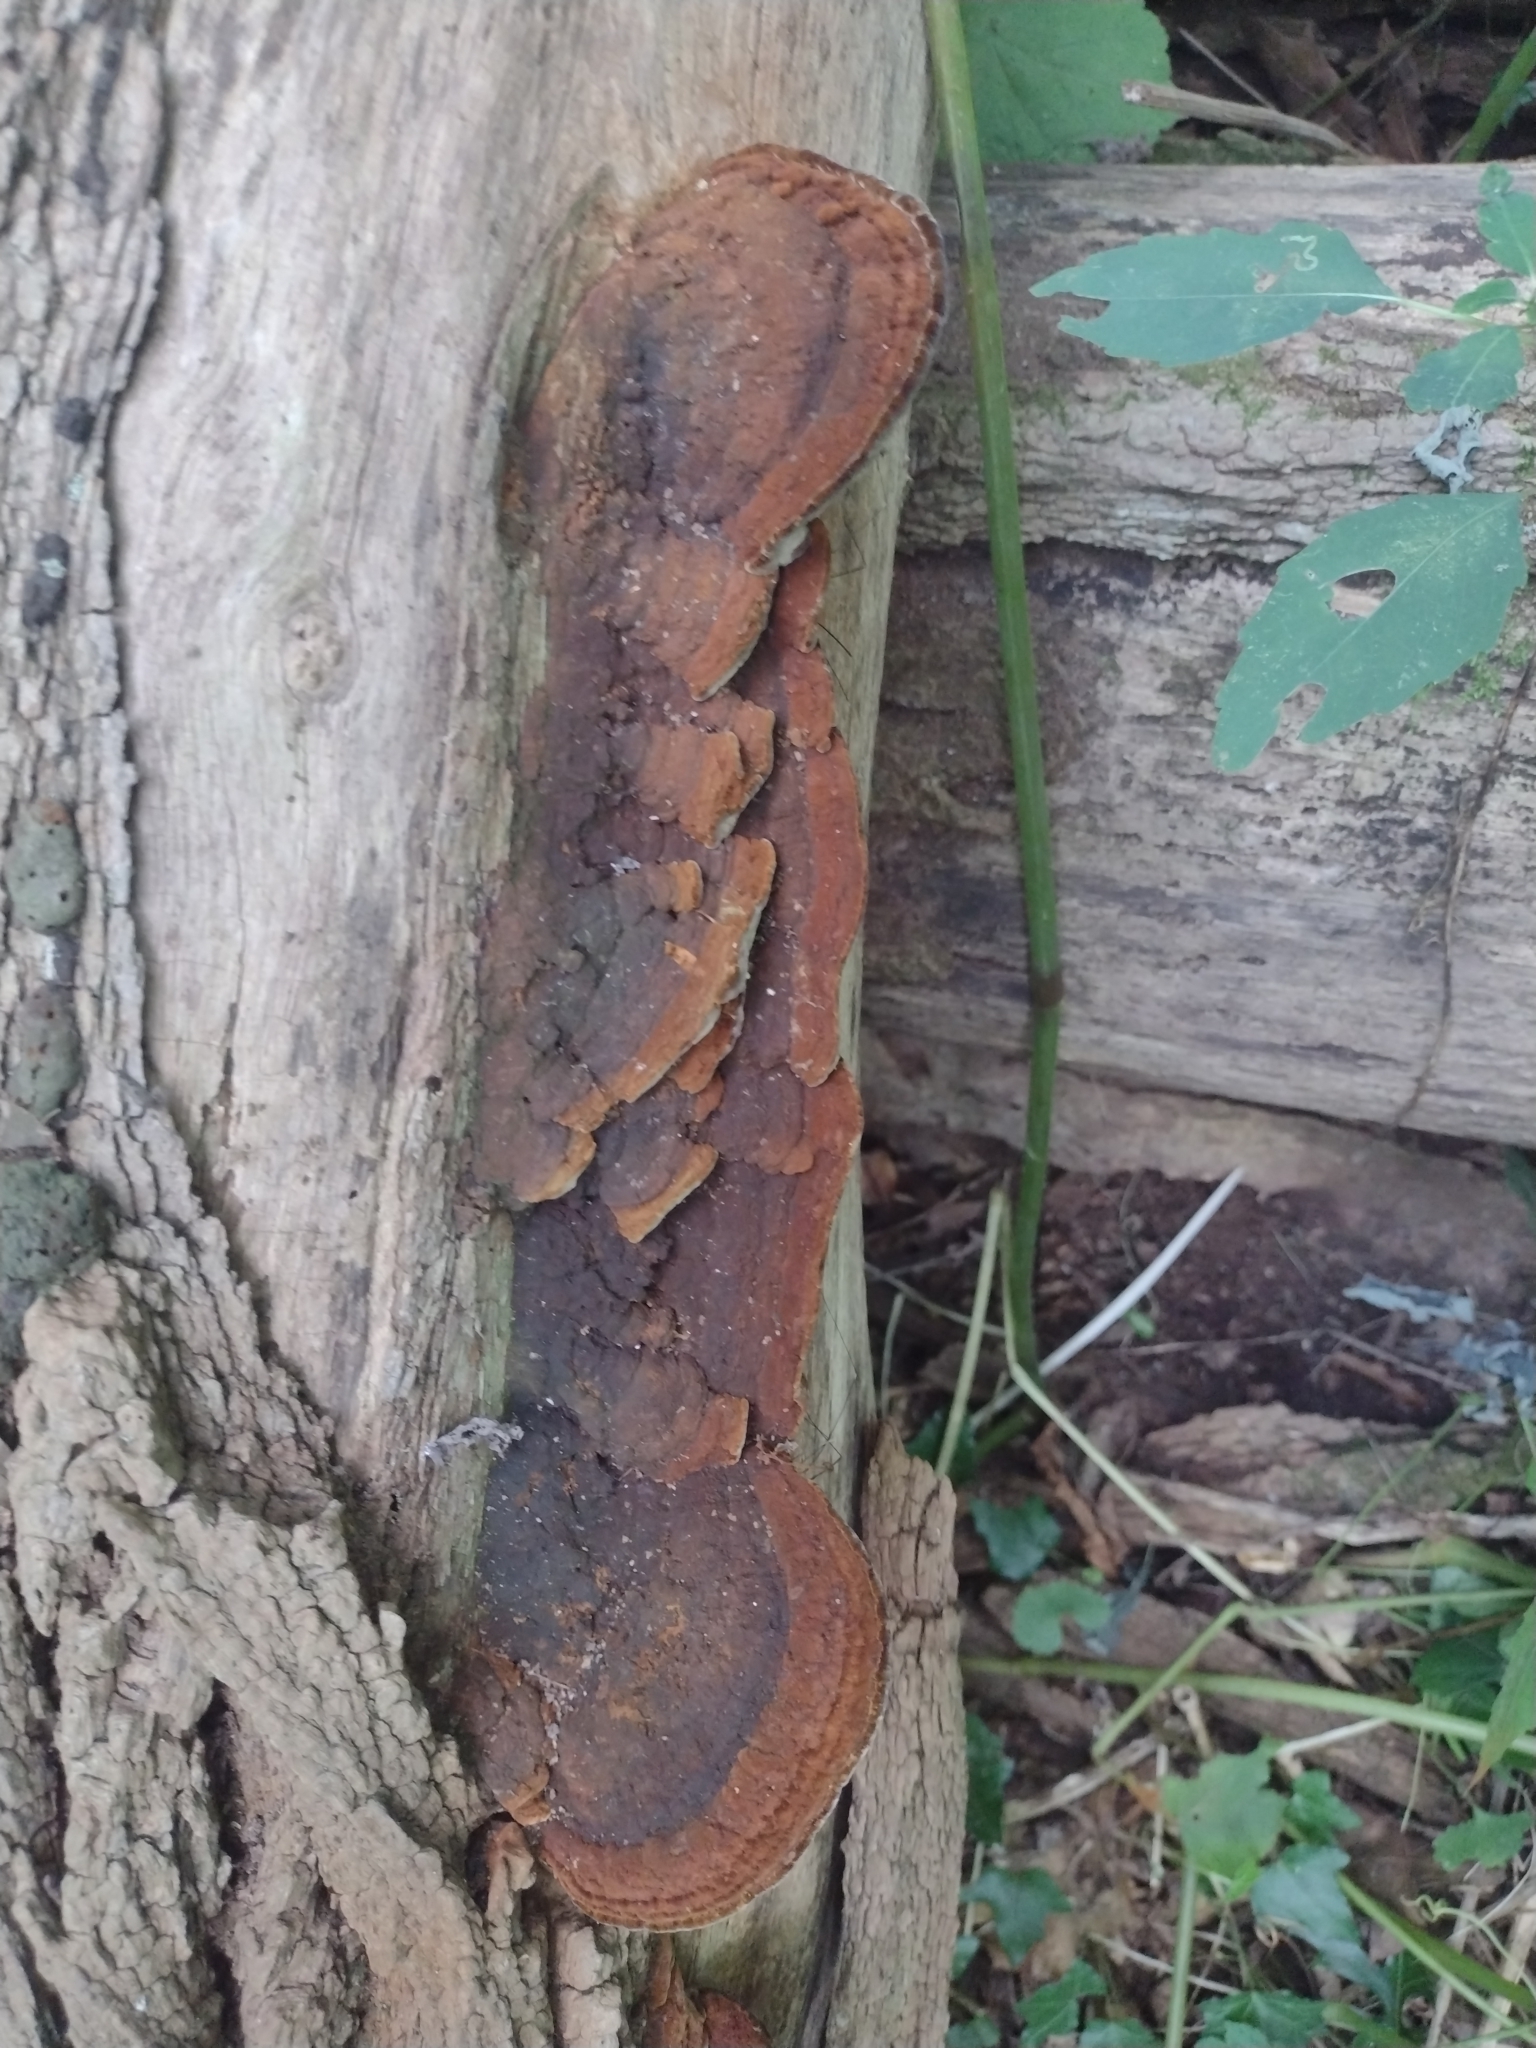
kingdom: Fungi
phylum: Basidiomycota
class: Agaricomycetes
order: Hymenochaetales
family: Hymenochaetaceae
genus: Phellinus
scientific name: Phellinus robiniae
